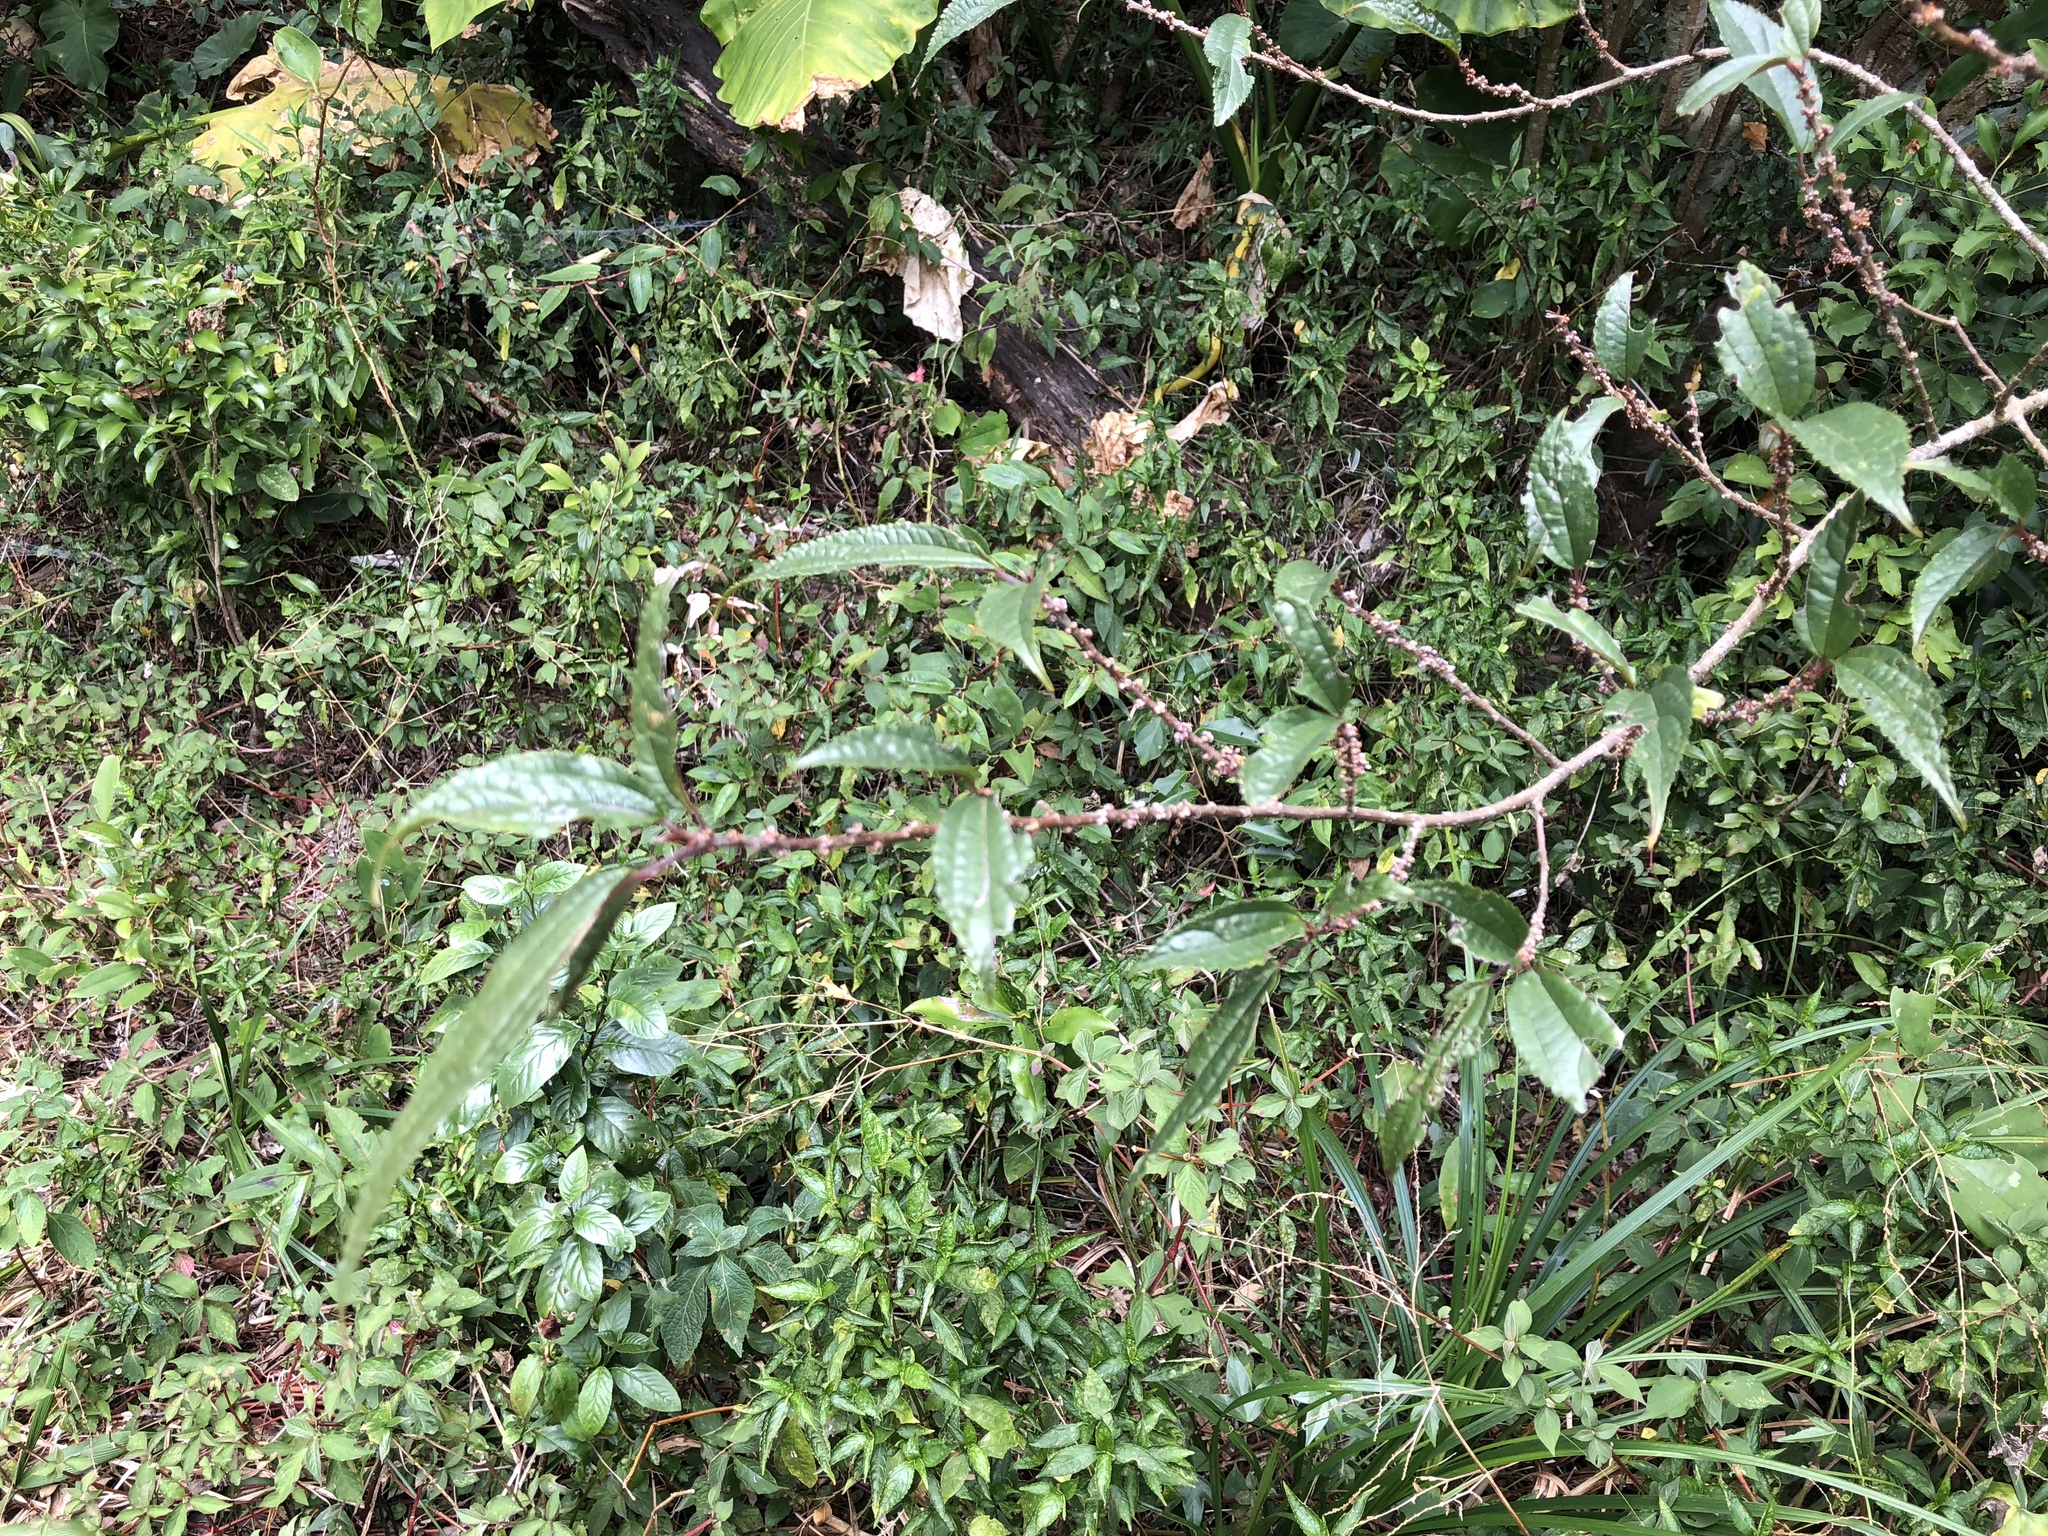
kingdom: Plantae
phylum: Tracheophyta
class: Magnoliopsida
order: Rosales
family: Urticaceae
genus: Oreocnide
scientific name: Oreocnide pedunculata
